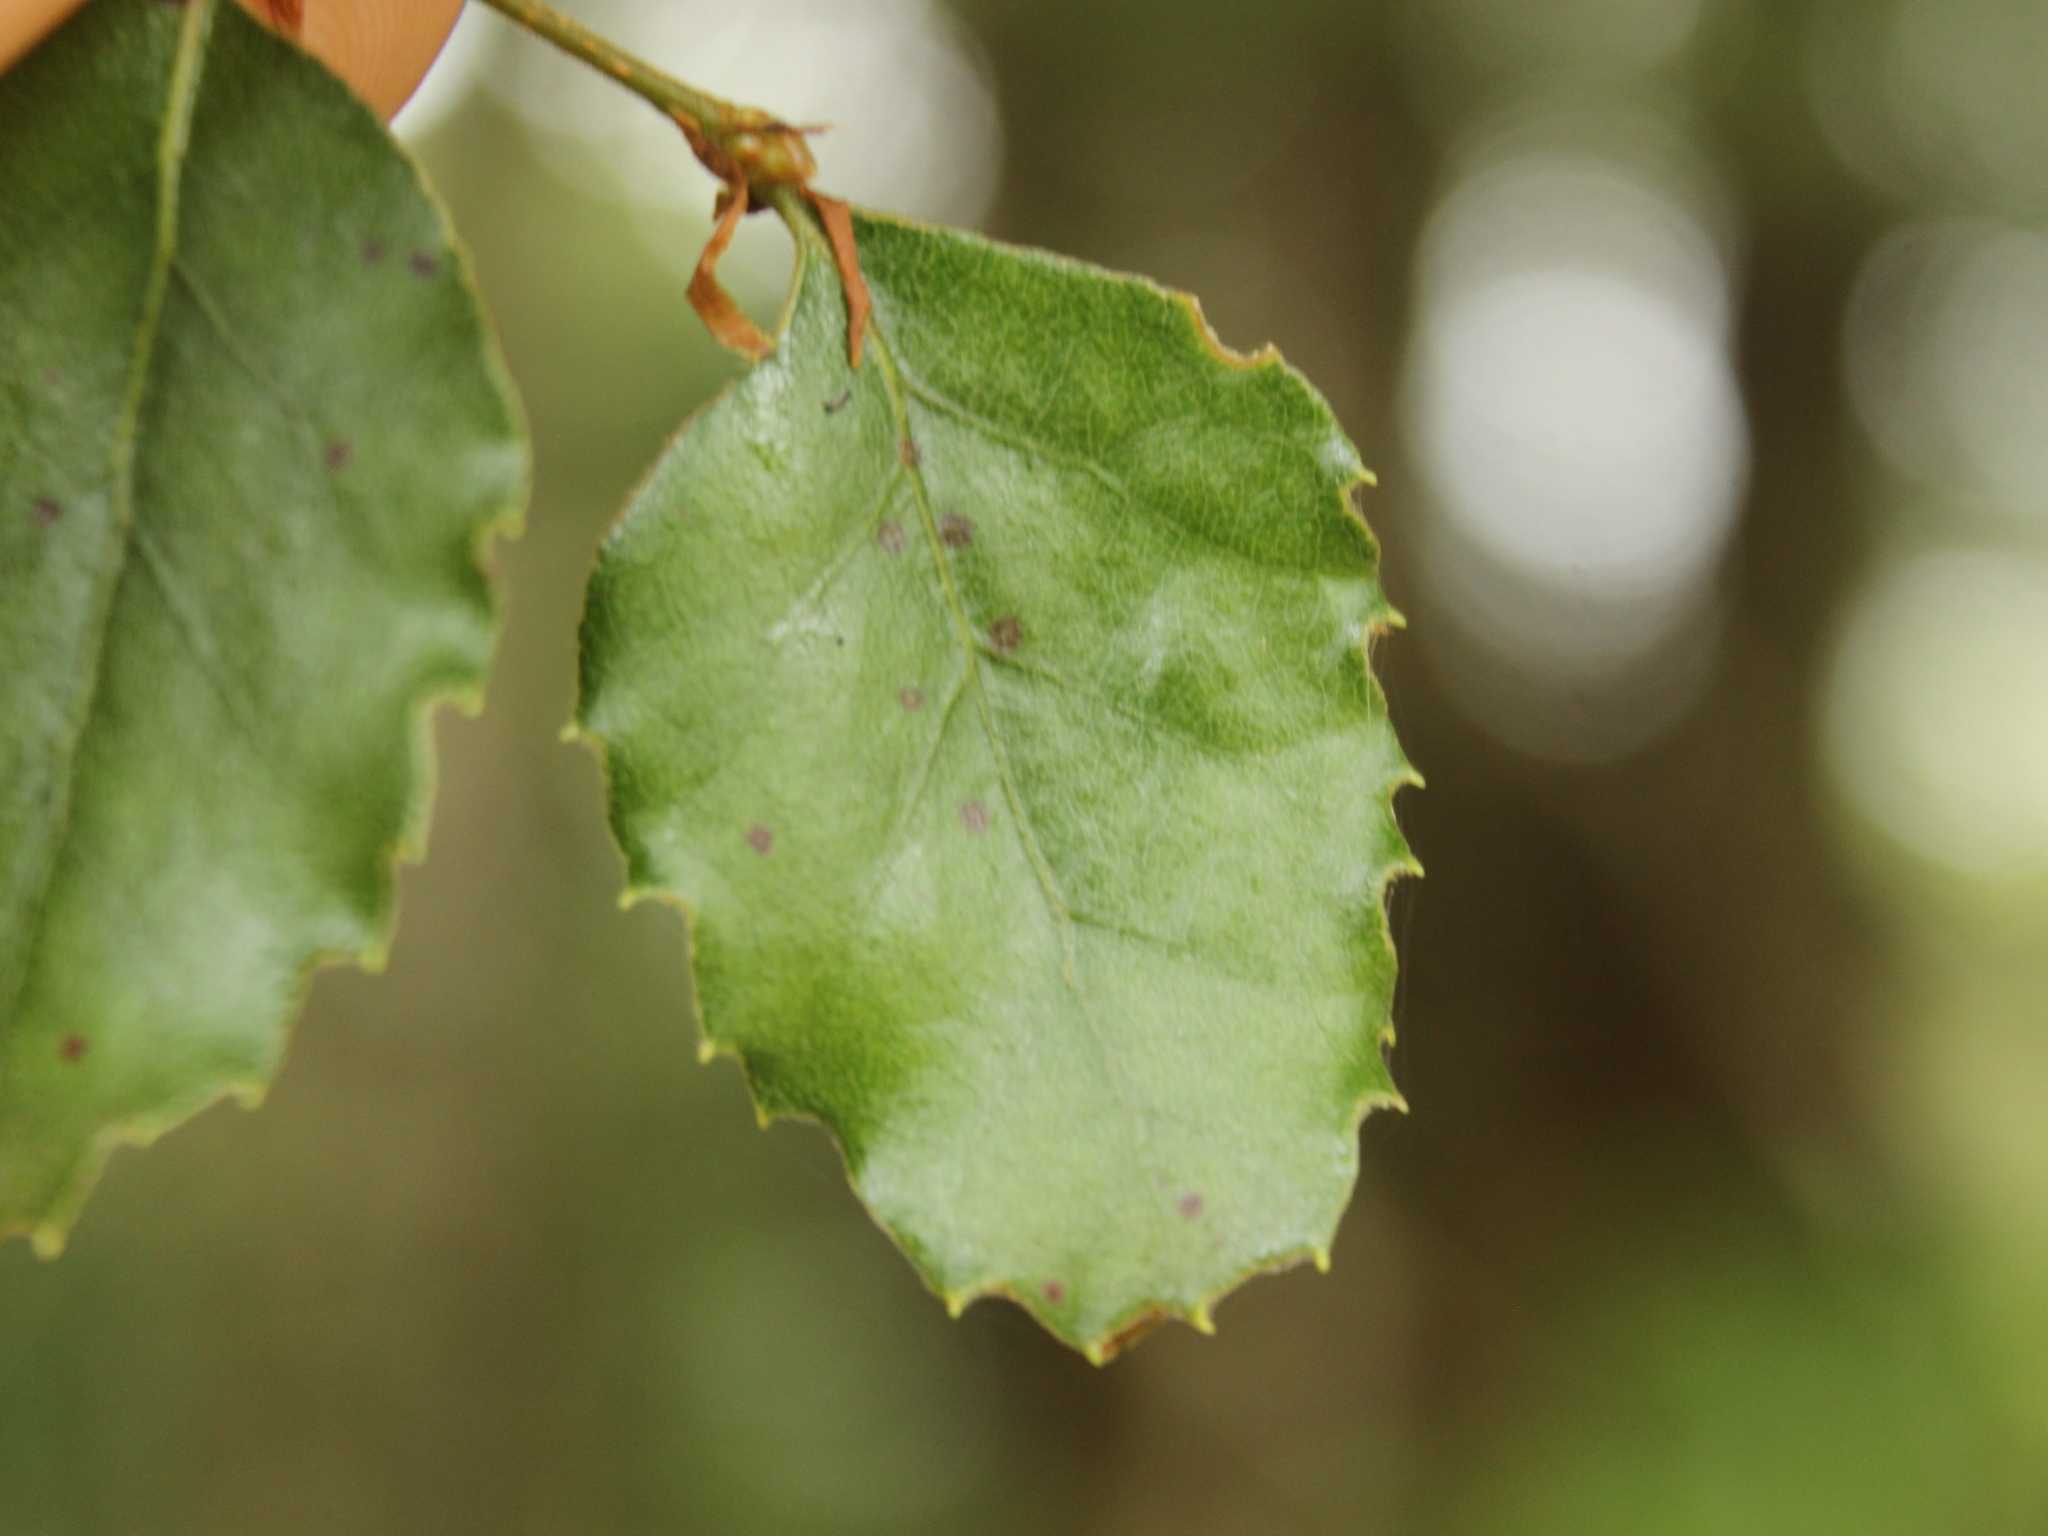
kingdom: Plantae
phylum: Tracheophyta
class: Magnoliopsida
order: Fagales
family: Nothofagaceae
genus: Nothofagus
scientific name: Nothofagus fusca
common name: Red beech
